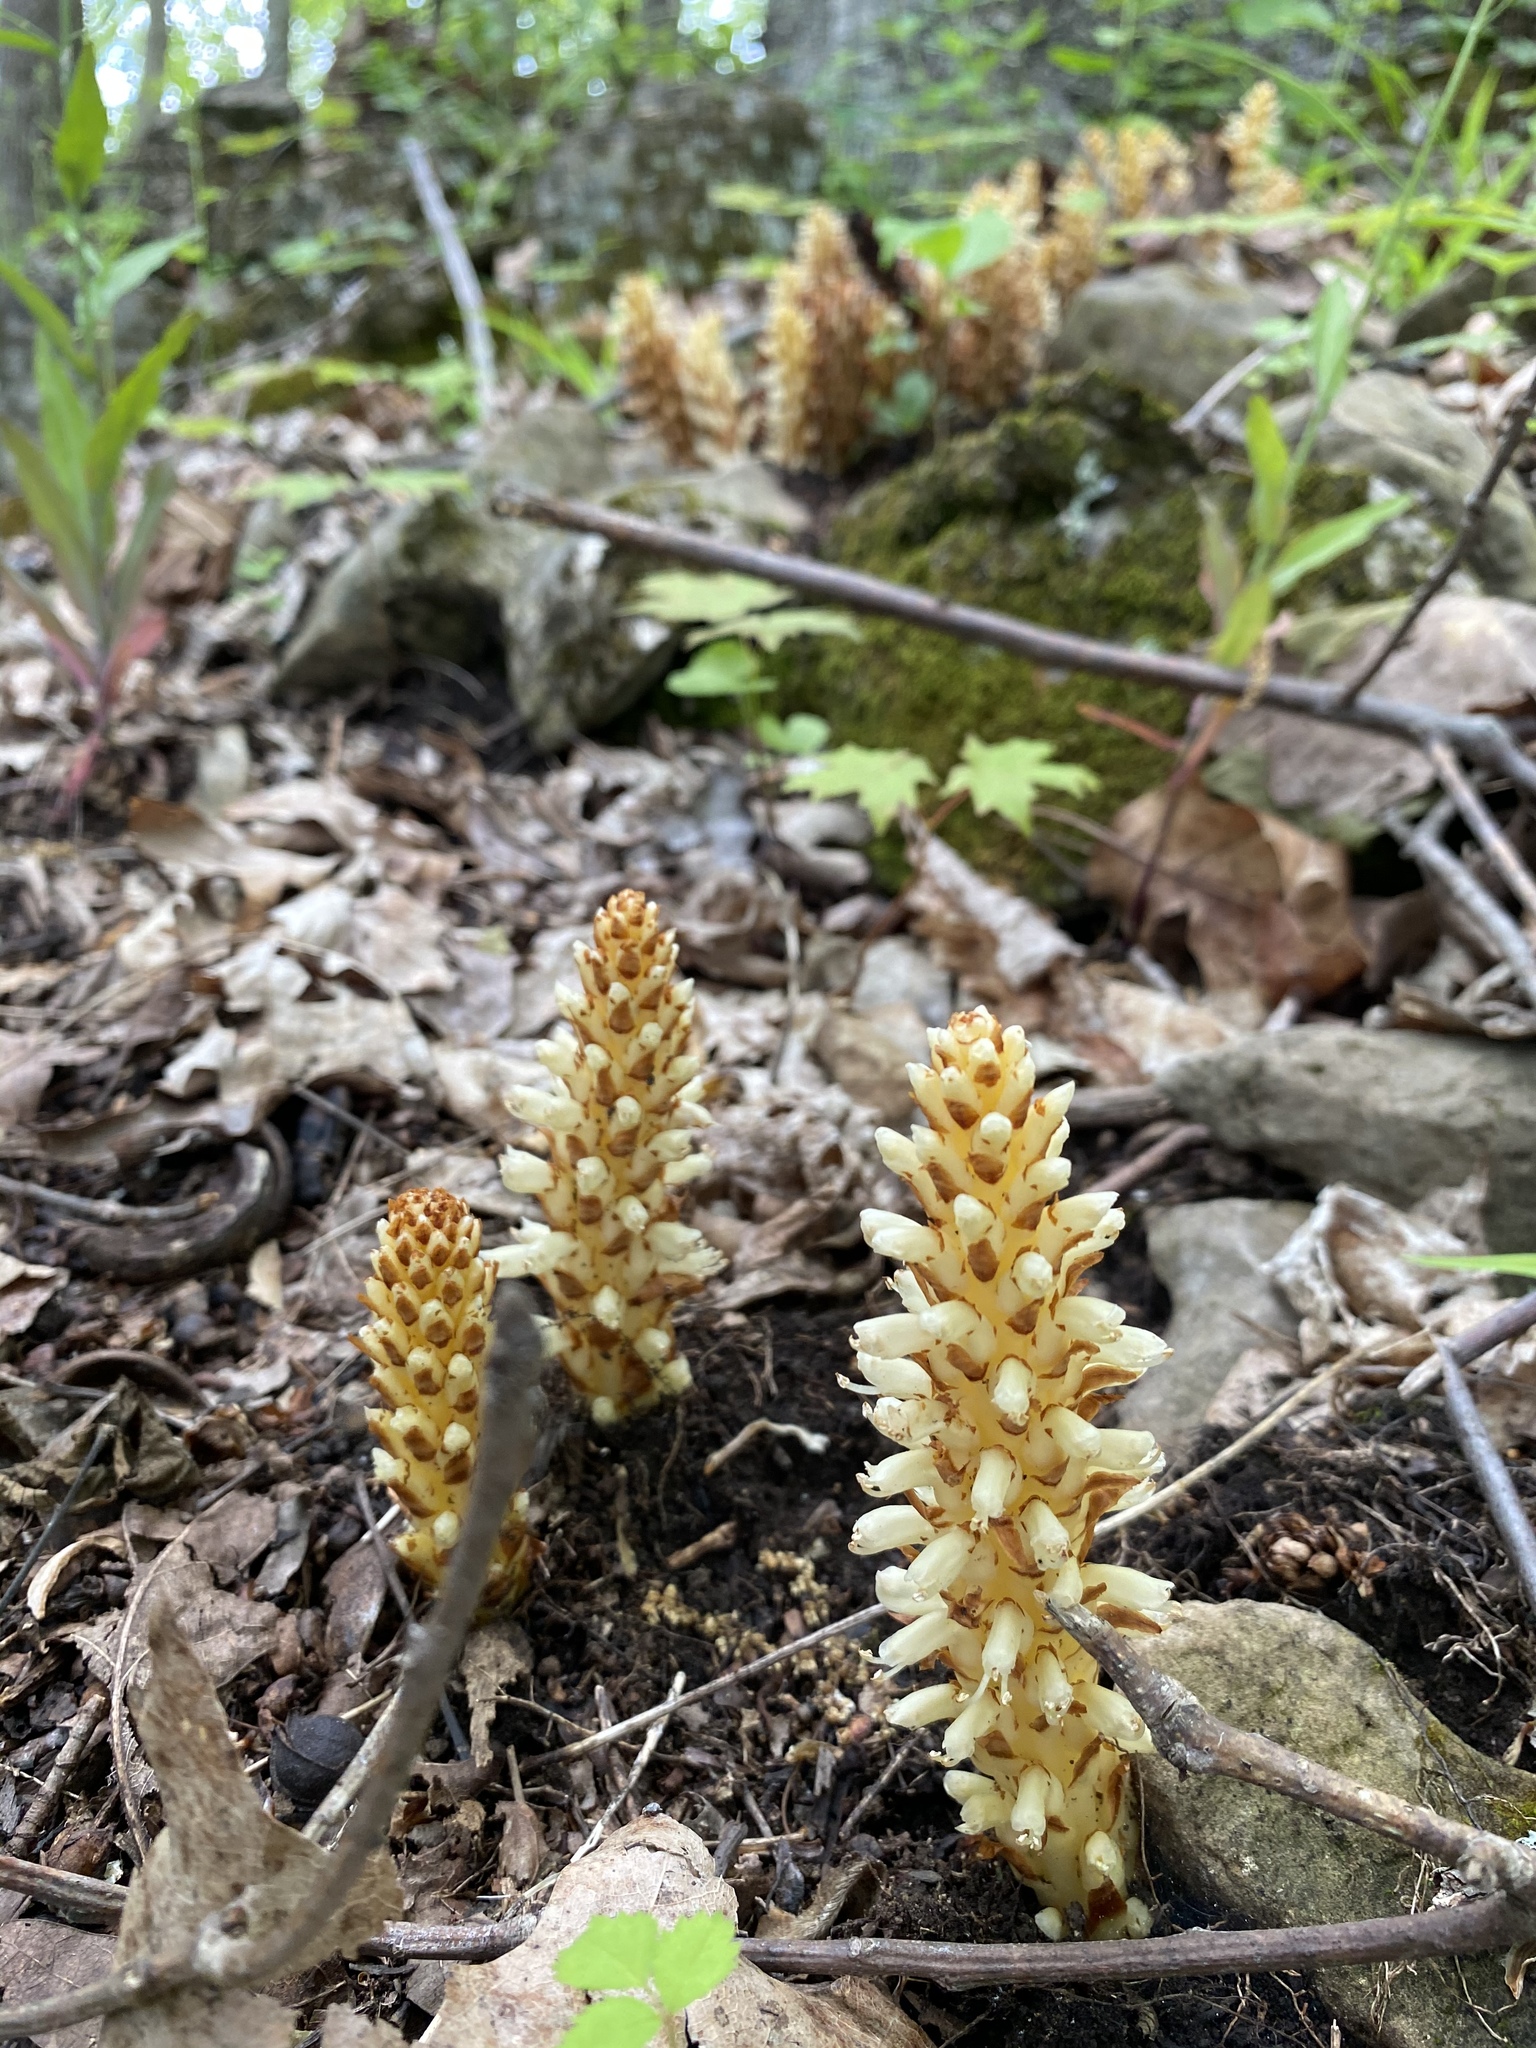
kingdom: Plantae
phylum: Tracheophyta
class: Magnoliopsida
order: Lamiales
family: Orobanchaceae
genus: Conopholis
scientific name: Conopholis americana
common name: American cancer-root
